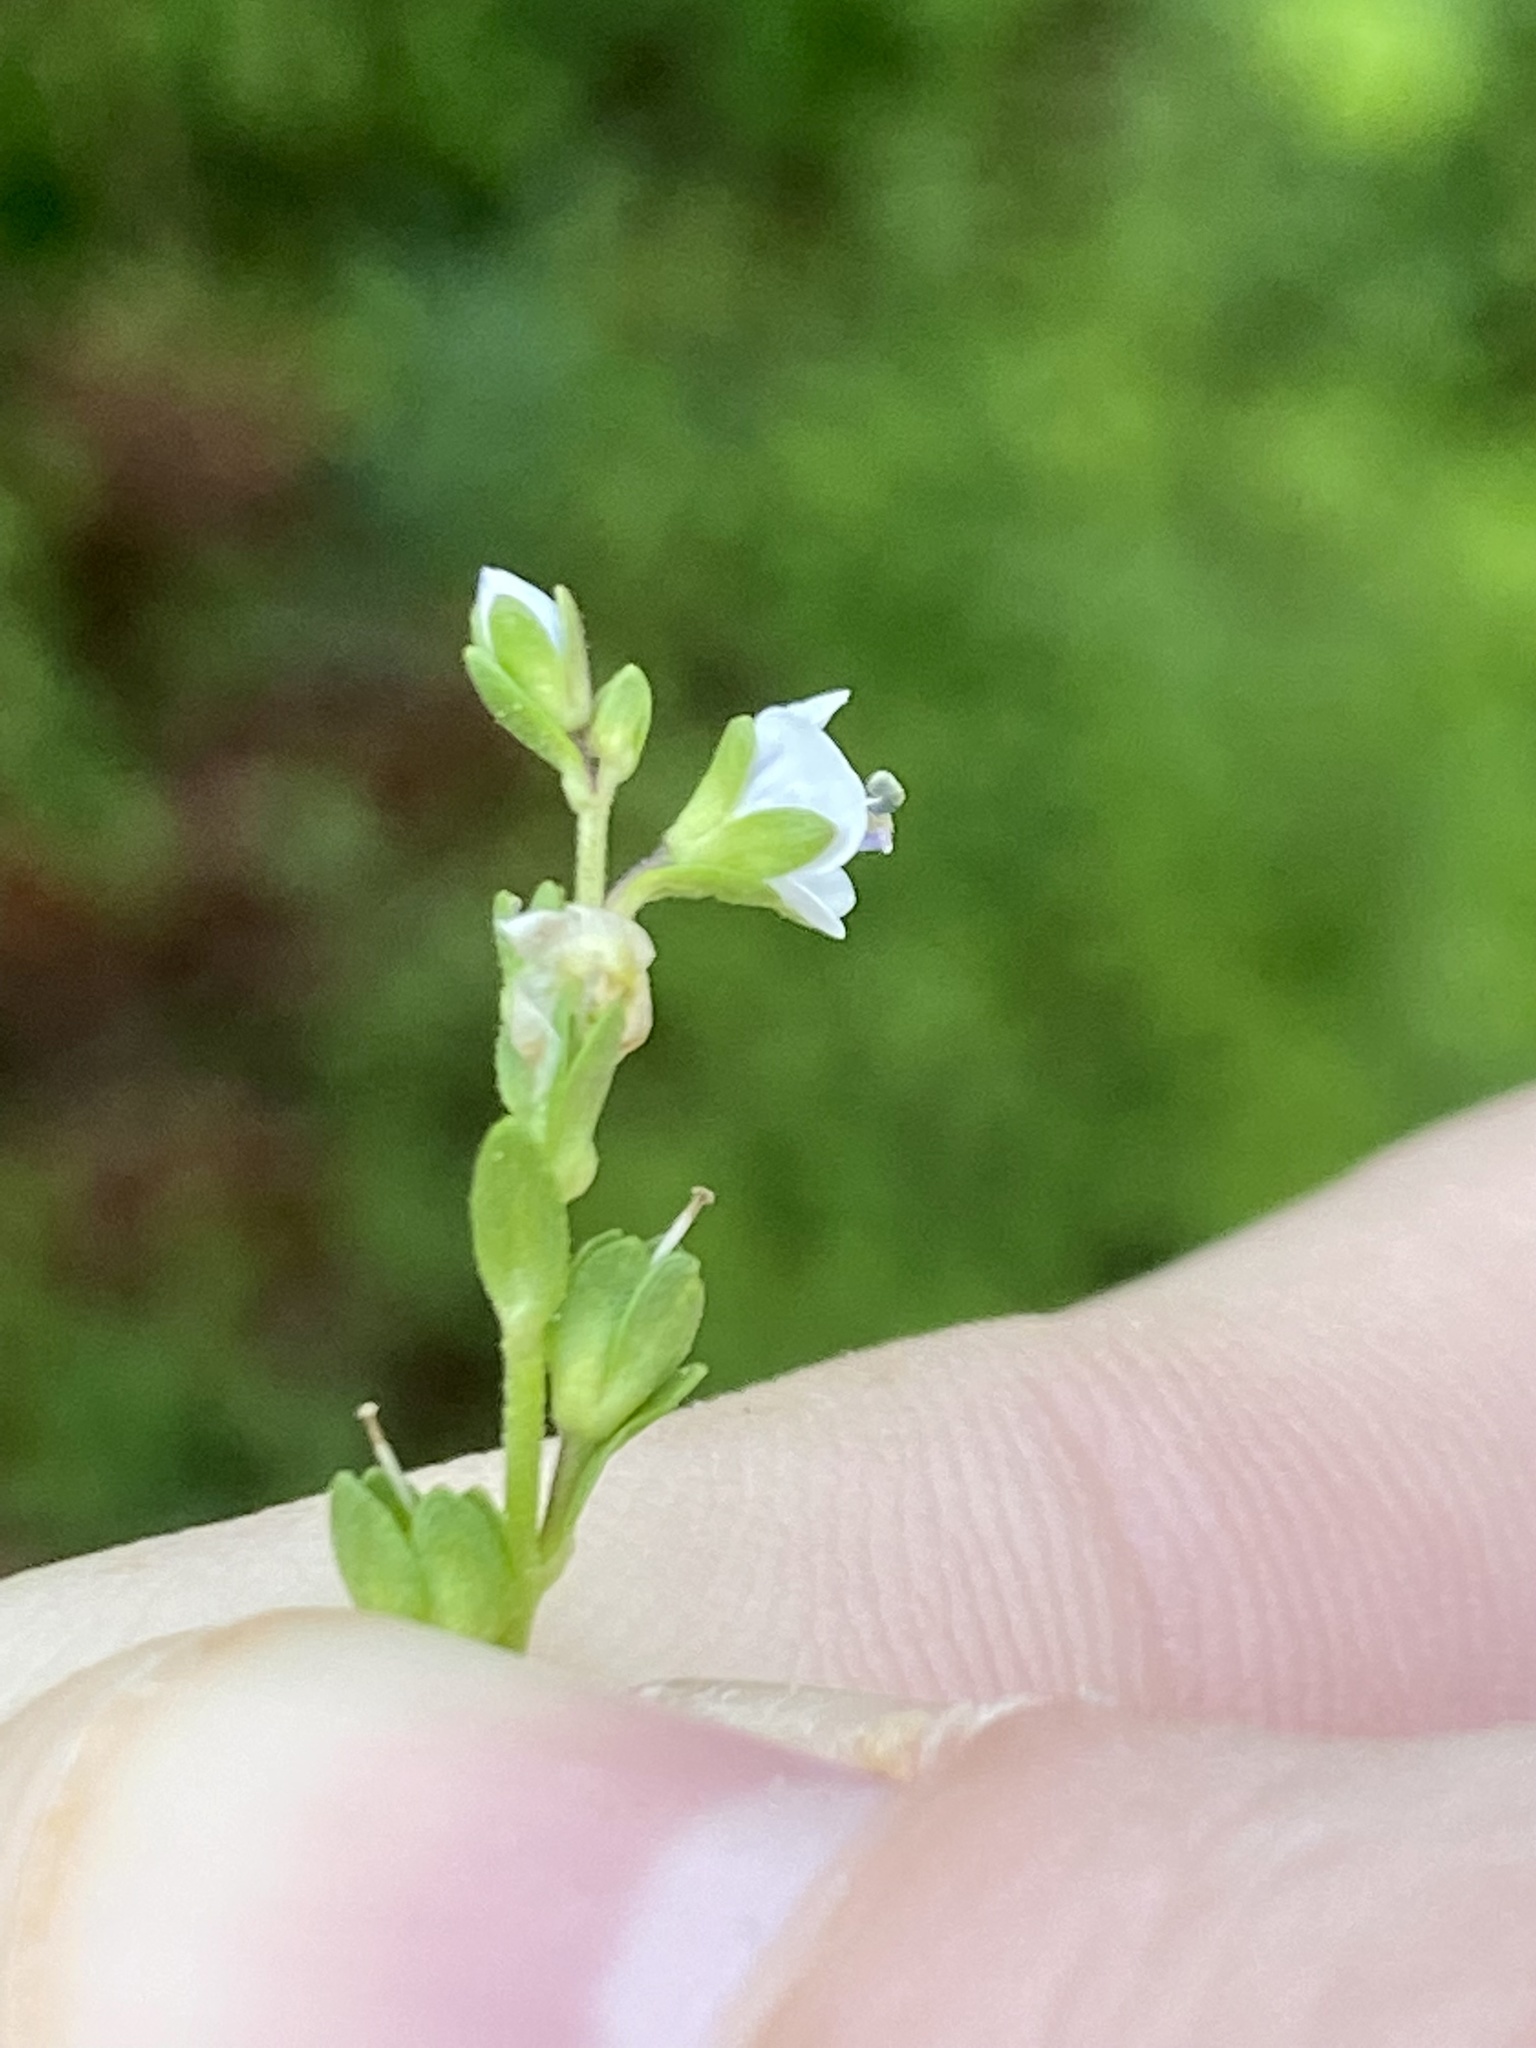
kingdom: Plantae
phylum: Tracheophyta
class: Magnoliopsida
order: Lamiales
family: Plantaginaceae
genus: Veronica
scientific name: Veronica serpyllifolia
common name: Thyme-leaved speedwell
